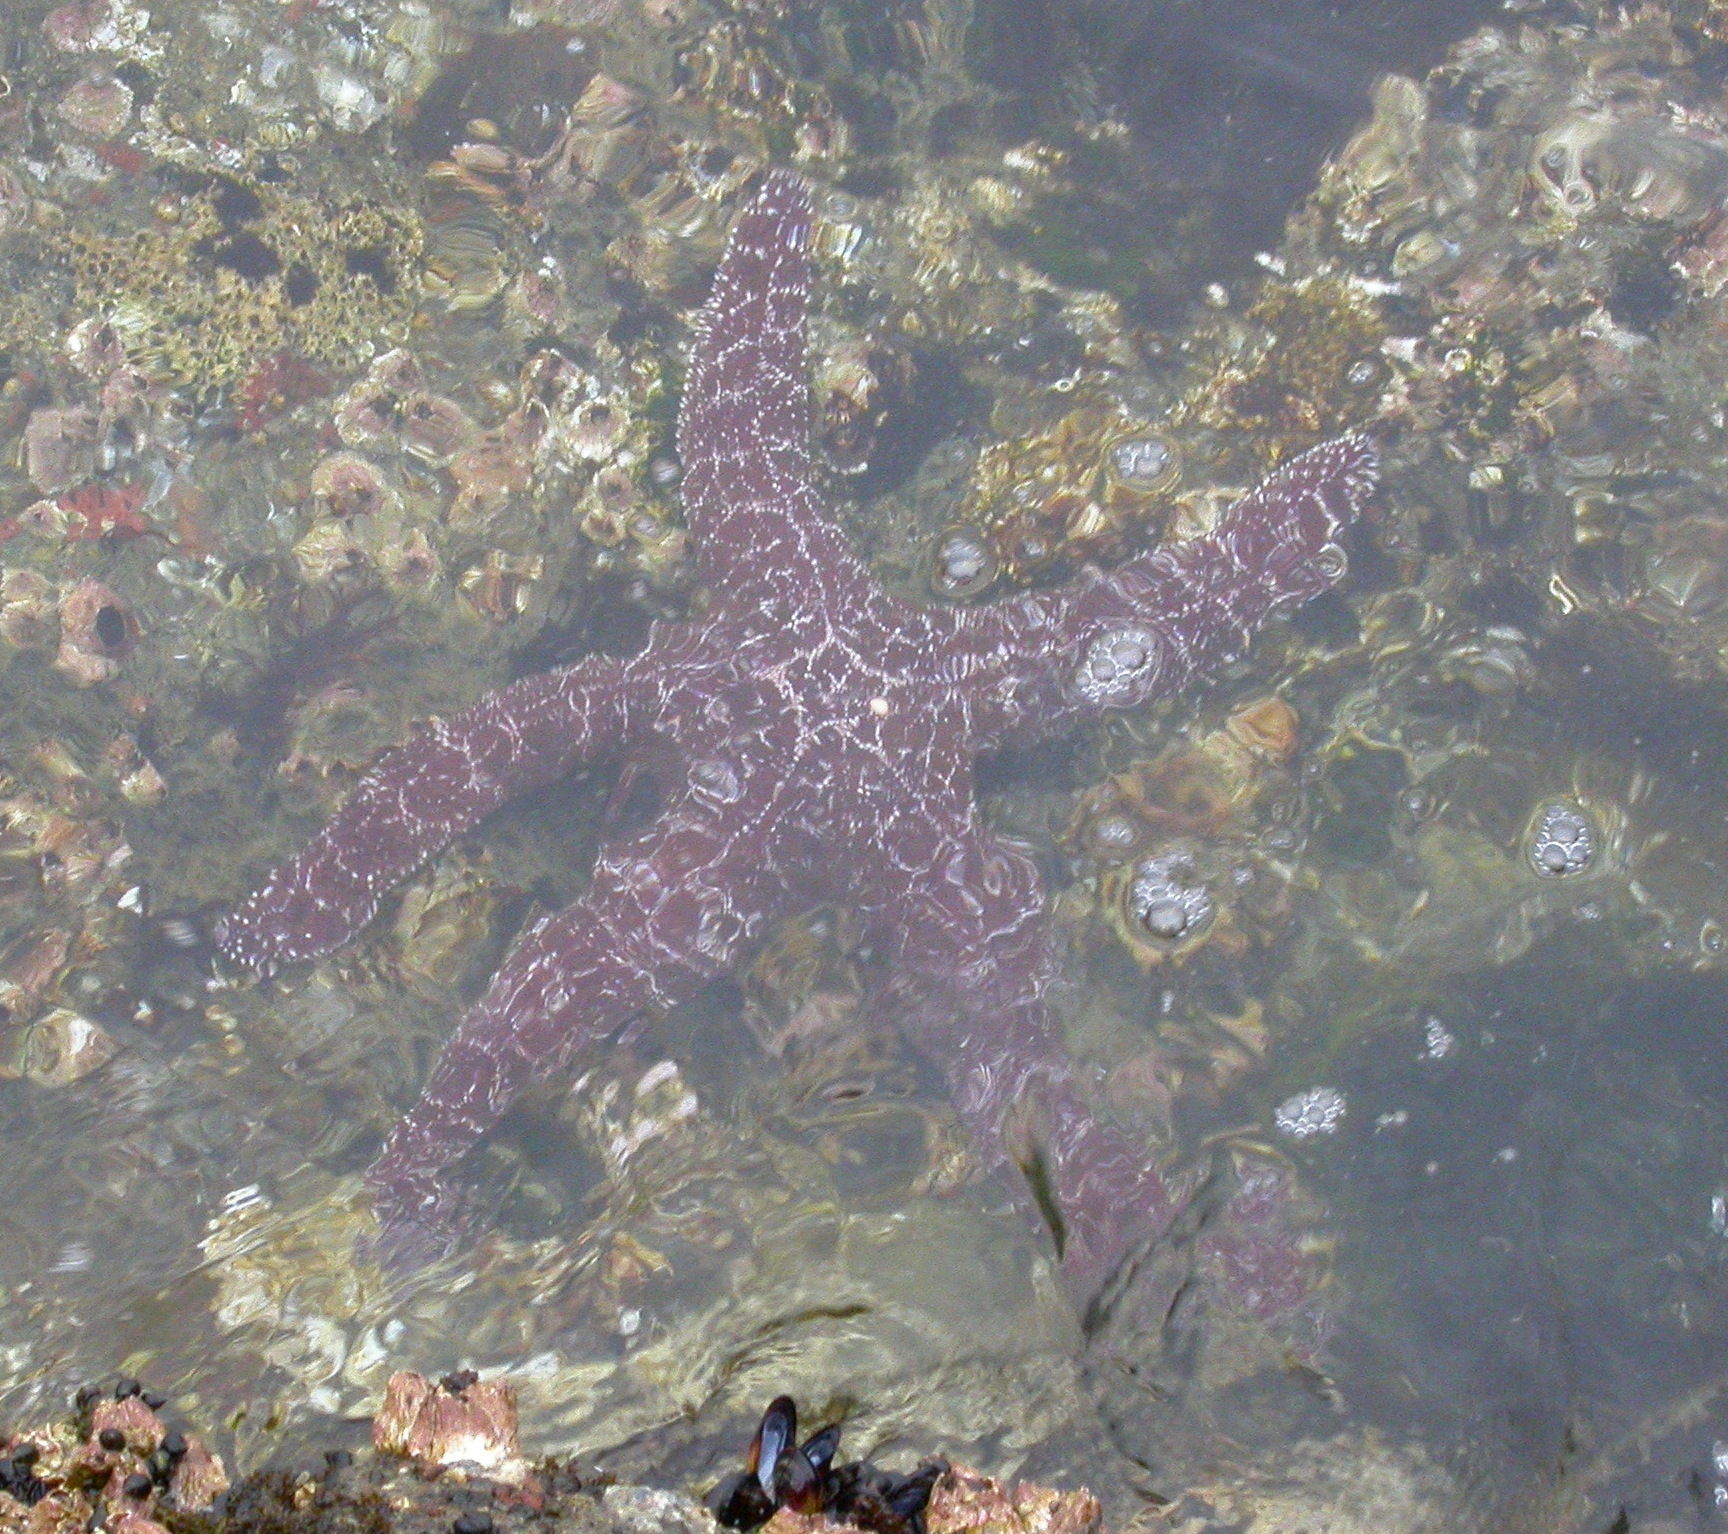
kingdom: Animalia
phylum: Echinodermata
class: Asteroidea
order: Forcipulatida
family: Asteriidae
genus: Pisaster
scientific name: Pisaster ochraceus
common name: Ochre stars
